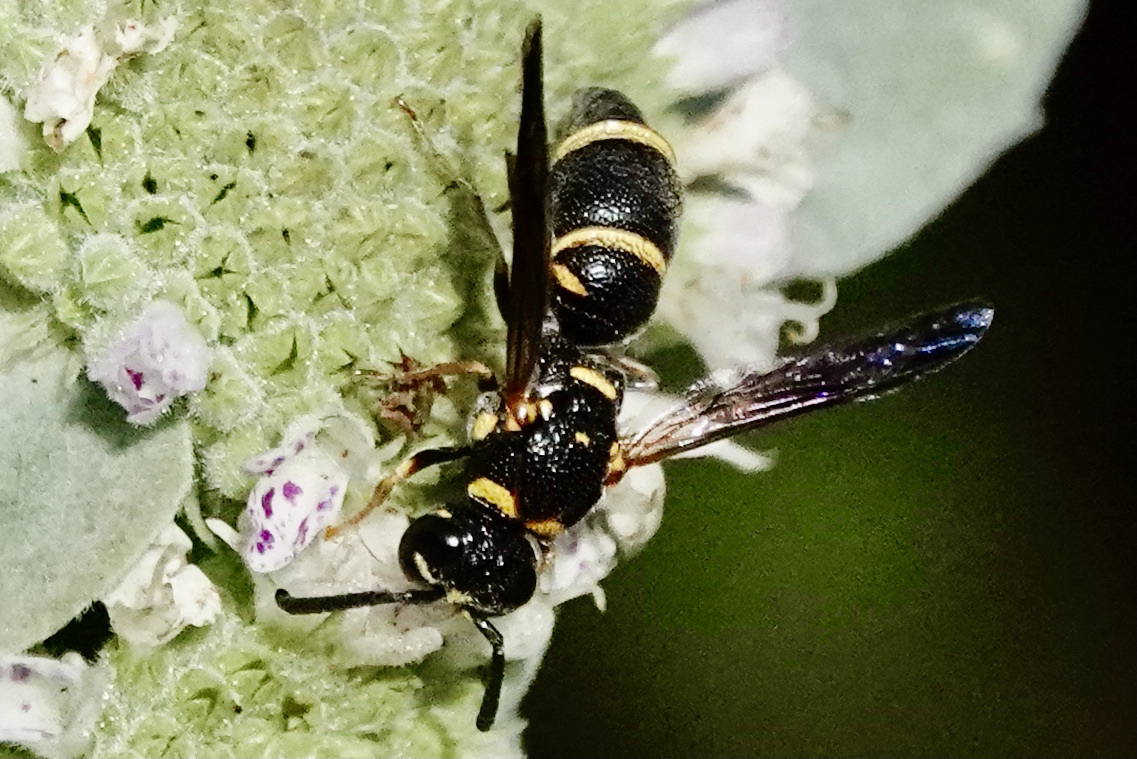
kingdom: Animalia
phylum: Arthropoda
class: Insecta
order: Hymenoptera
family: Eumenidae
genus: Parancistrocerus
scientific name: Parancistrocerus fulvipes
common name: Potter wasp
